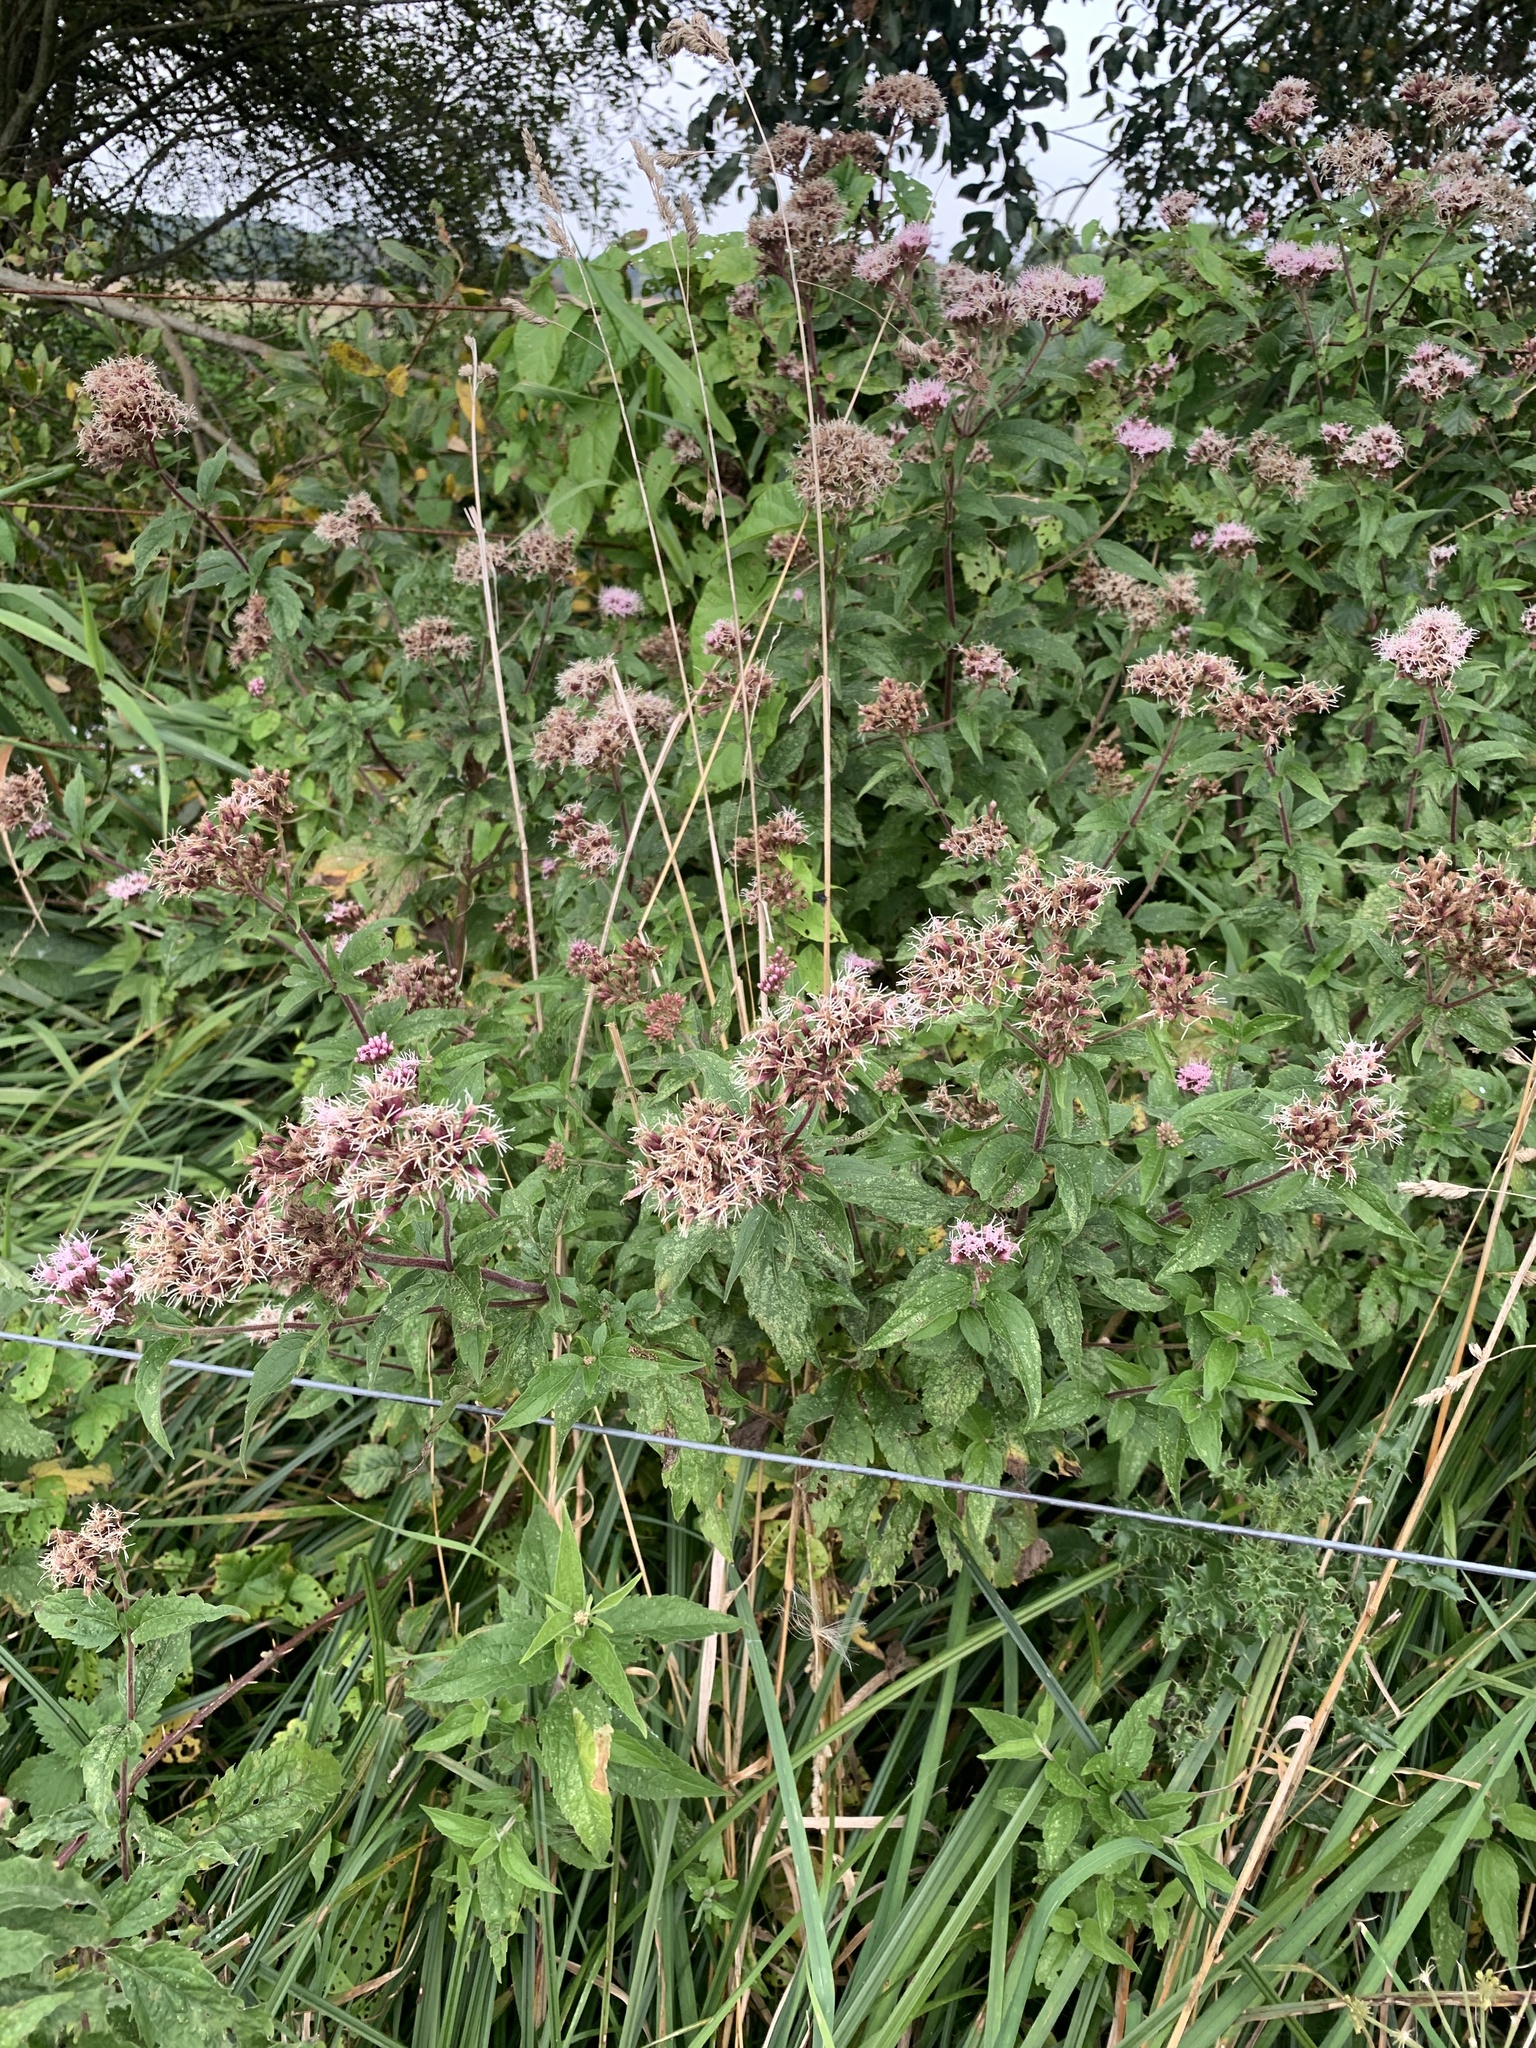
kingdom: Plantae
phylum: Tracheophyta
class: Magnoliopsida
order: Asterales
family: Asteraceae
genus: Eupatorium
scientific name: Eupatorium cannabinum
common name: Hemp-agrimony
